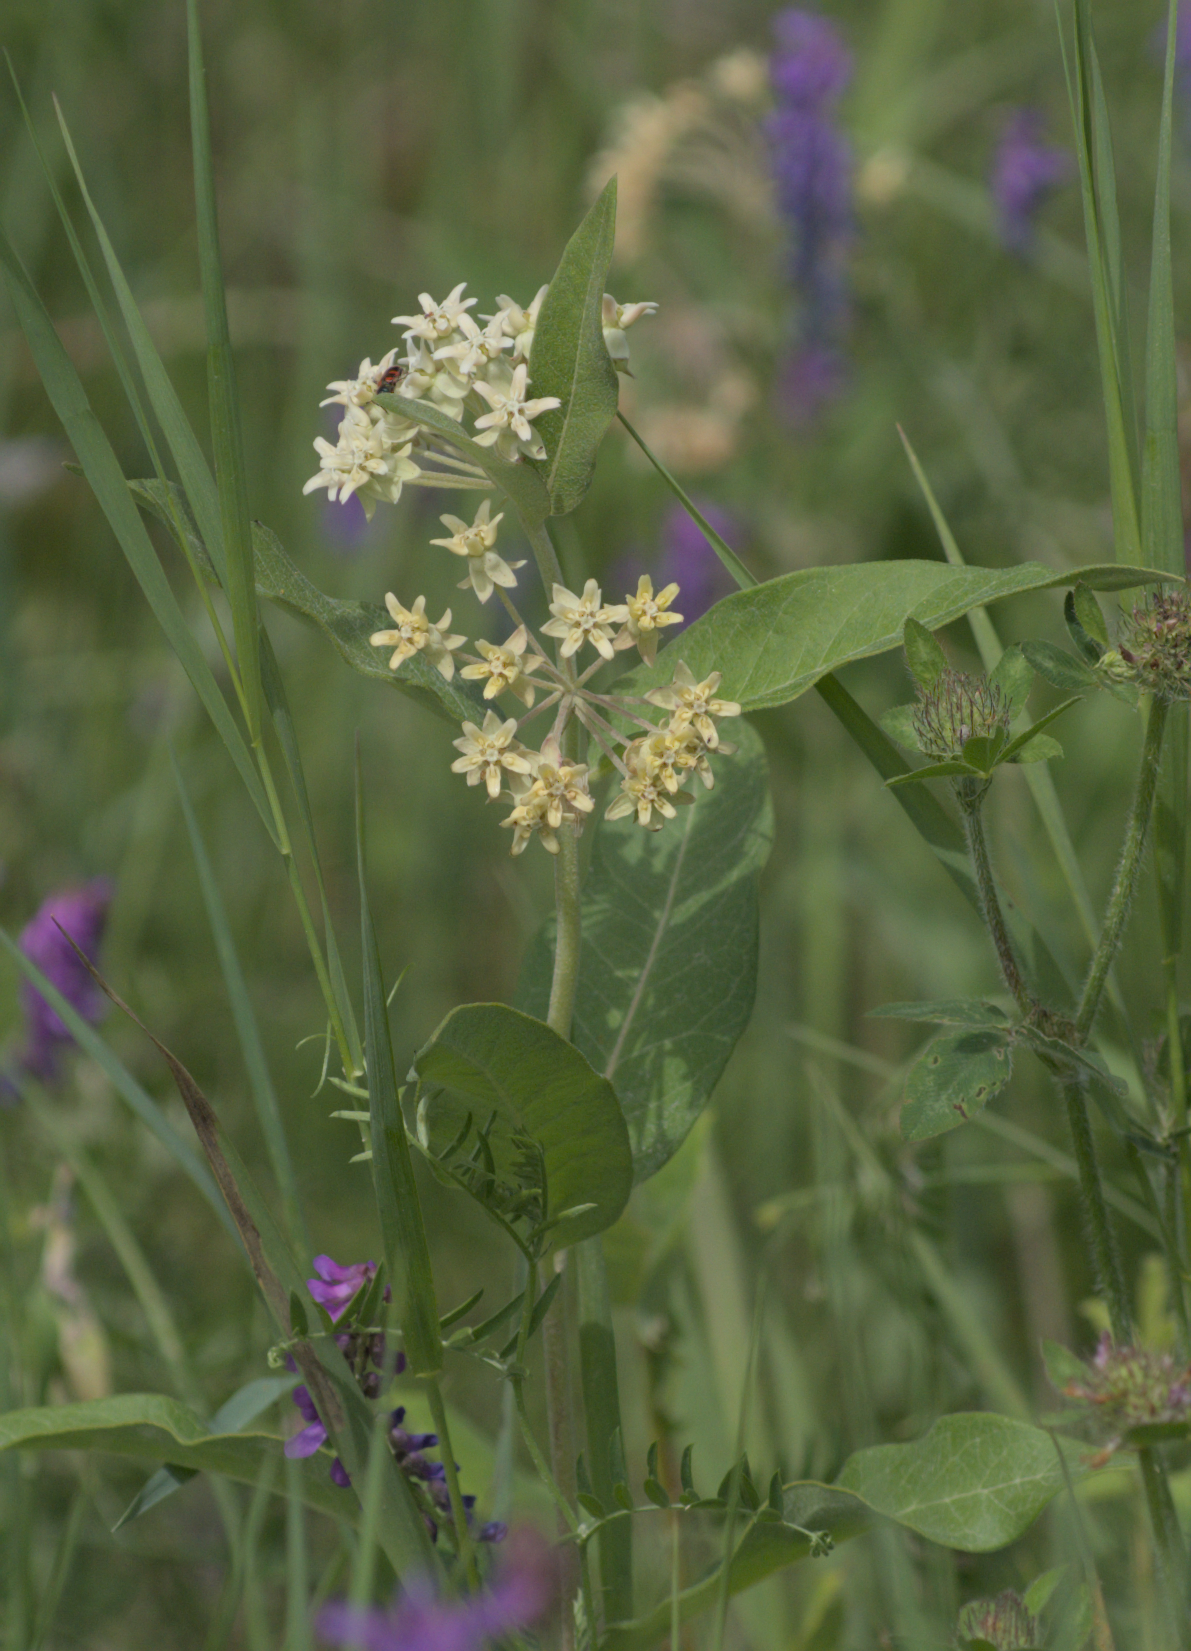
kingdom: Plantae
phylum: Tracheophyta
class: Magnoliopsida
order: Gentianales
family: Apocynaceae
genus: Asclepias
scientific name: Asclepias ovalifolia
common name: Dwarf milkweed
